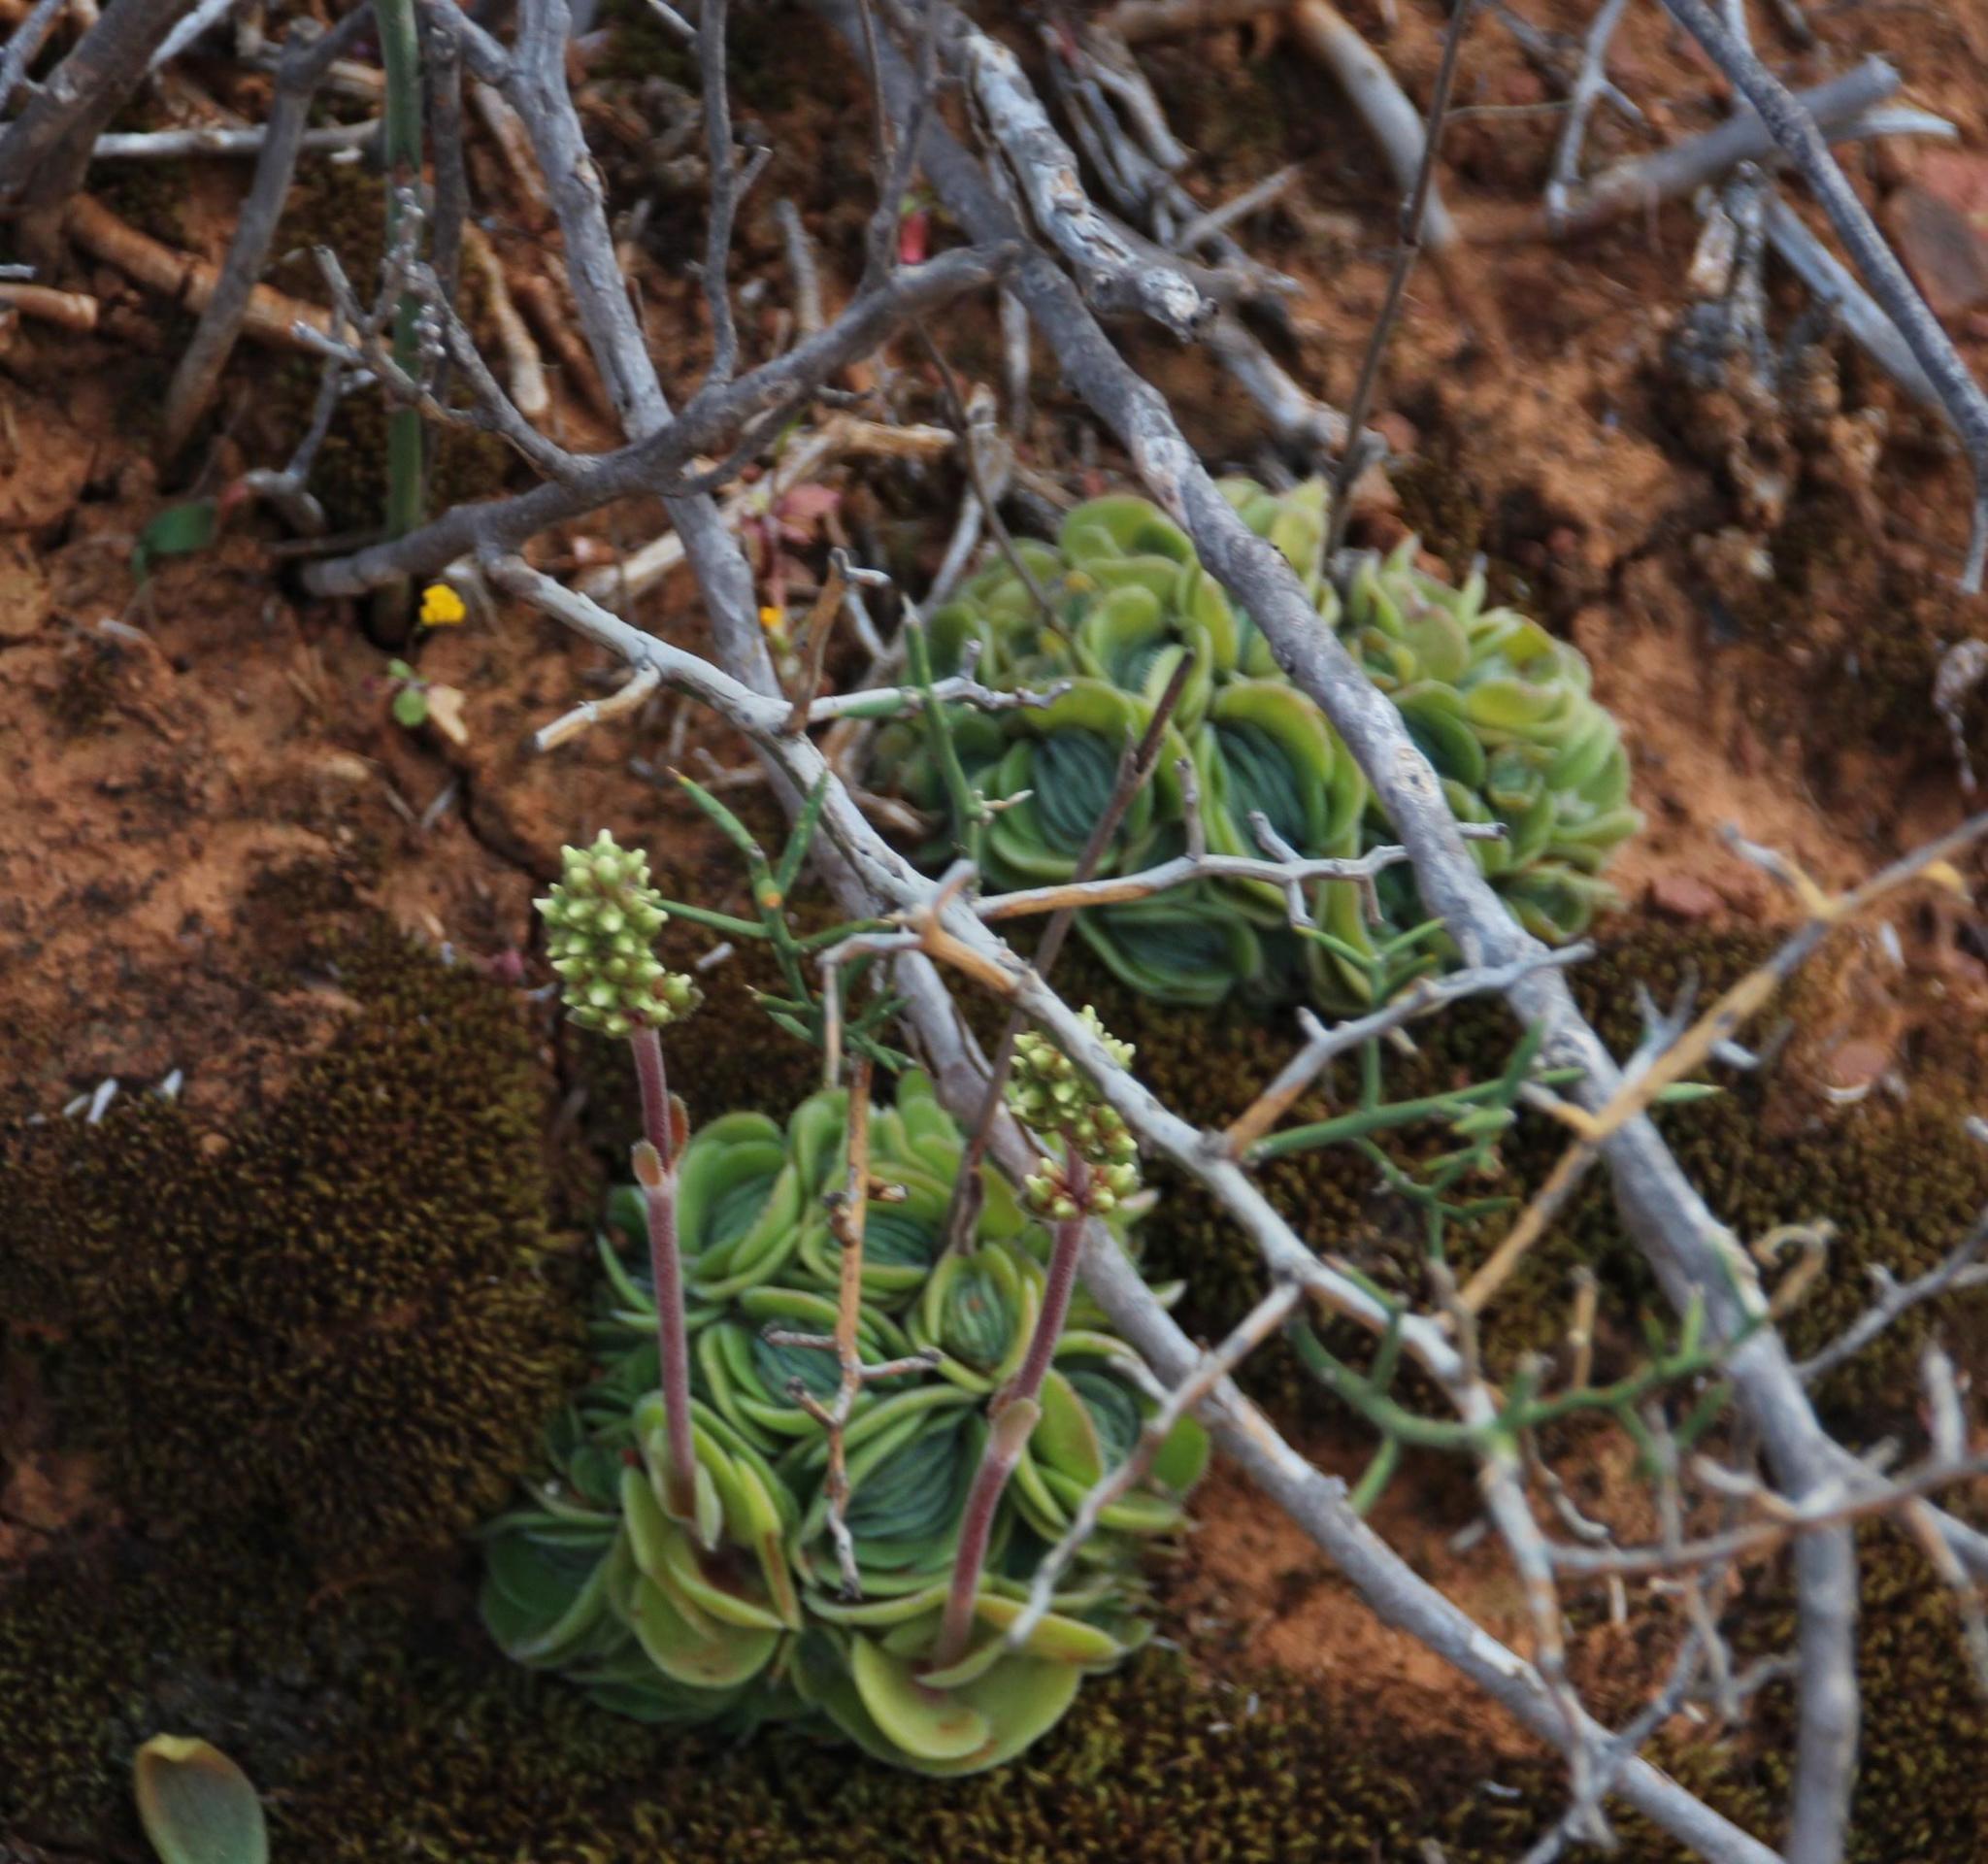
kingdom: Plantae
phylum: Tracheophyta
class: Magnoliopsida
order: Saxifragales
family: Crassulaceae
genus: Crassula
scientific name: Crassula tomentosa
